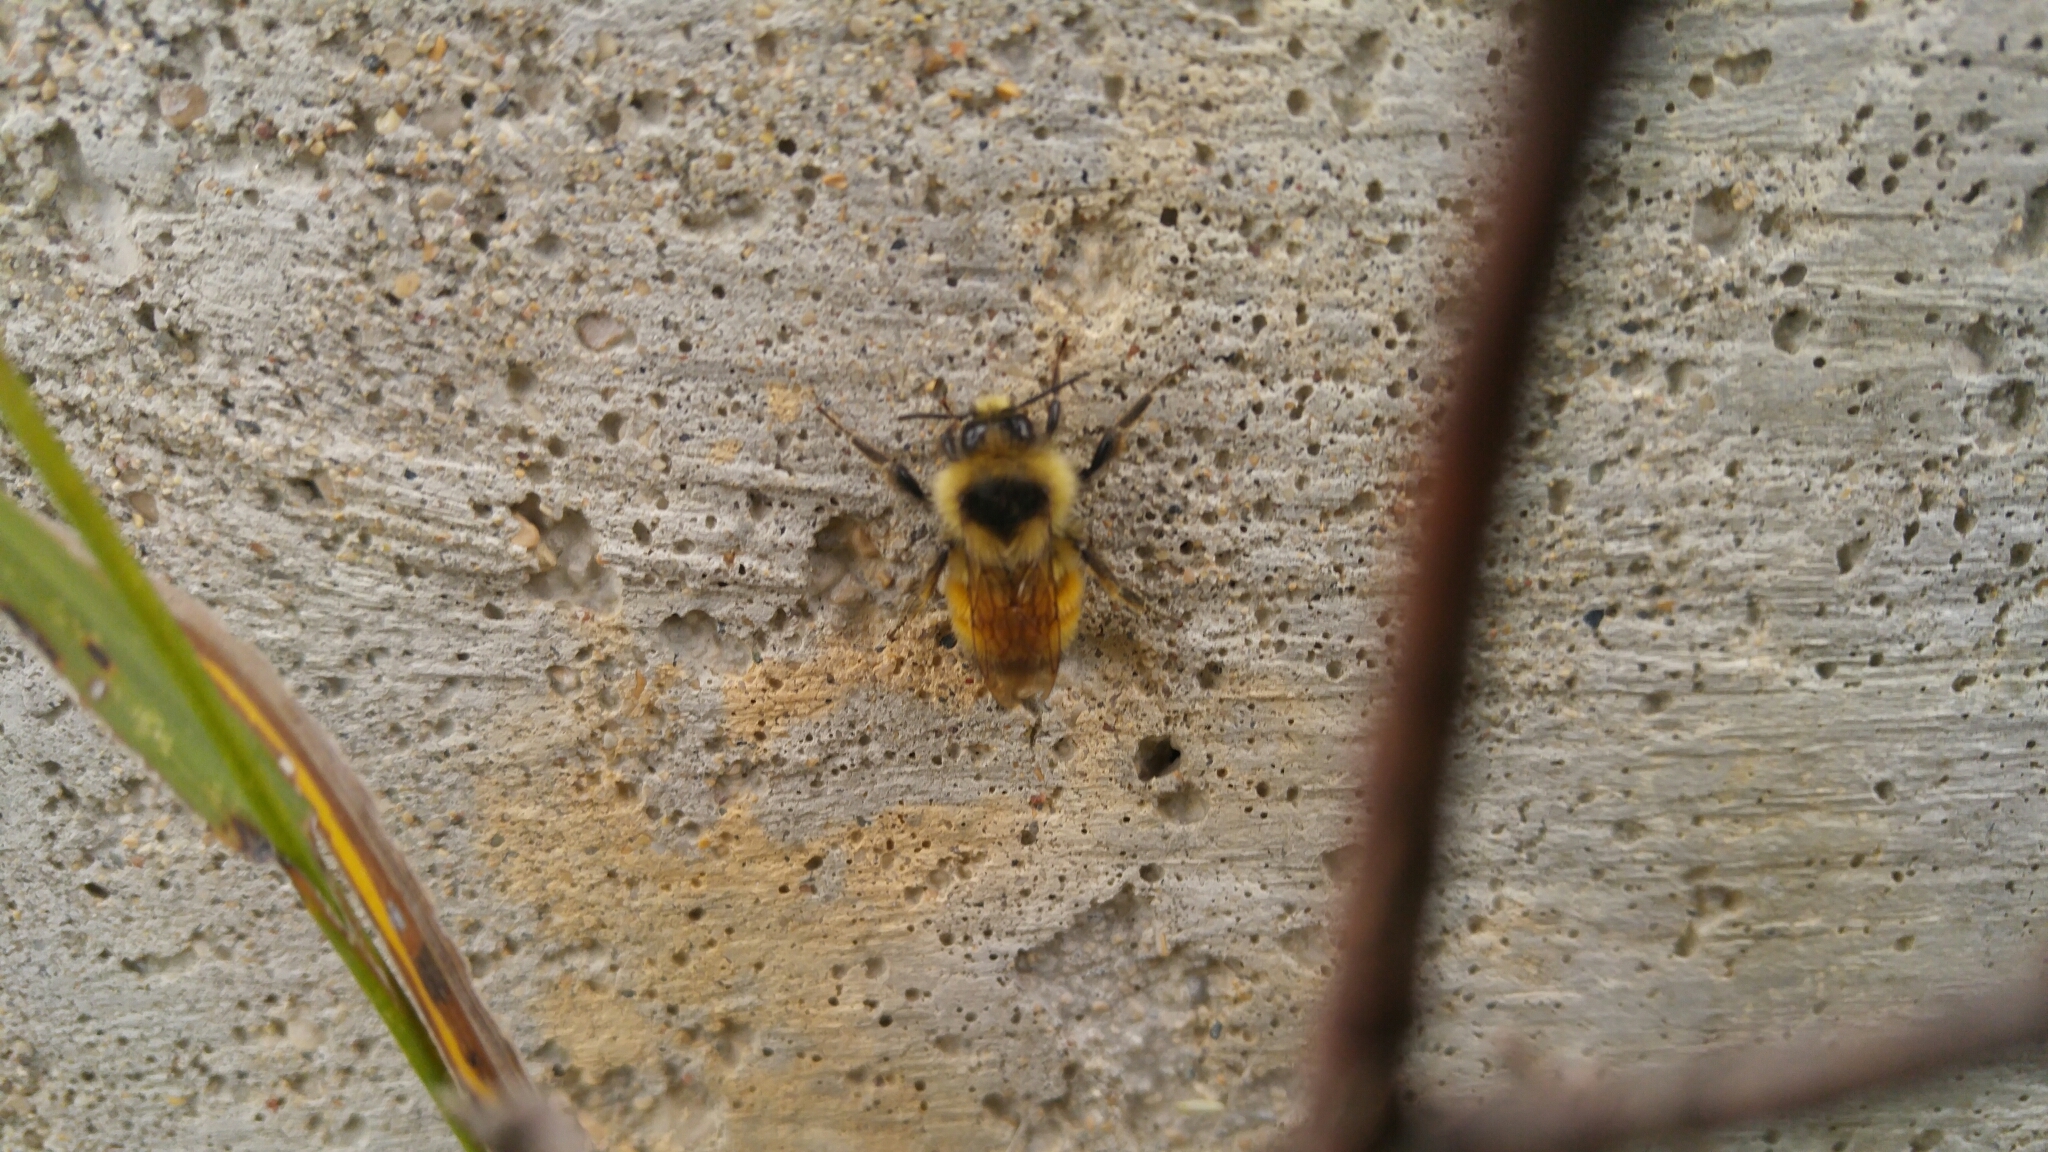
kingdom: Animalia
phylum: Arthropoda
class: Insecta
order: Hymenoptera
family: Apidae
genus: Bombus
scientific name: Bombus ternarius
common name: Tri-colored bumble bee
